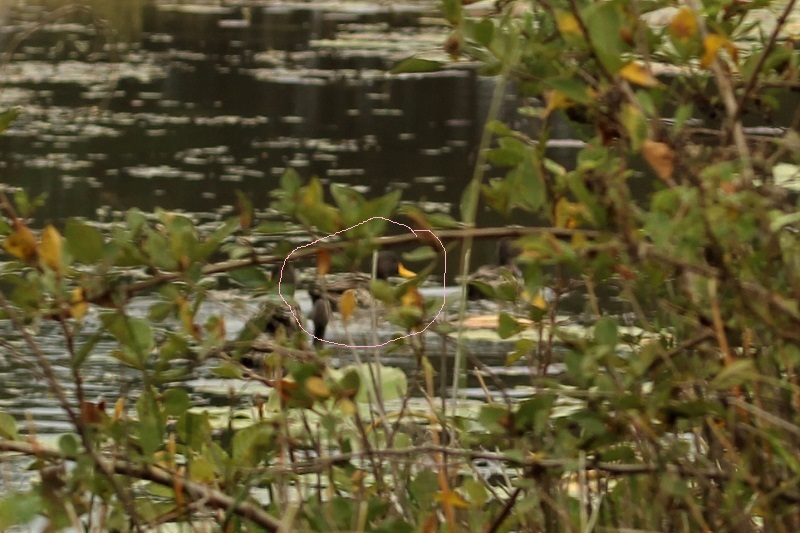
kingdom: Animalia
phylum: Chordata
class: Aves
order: Anseriformes
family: Anatidae
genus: Anas
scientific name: Anas undulata
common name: Yellow-billed duck
